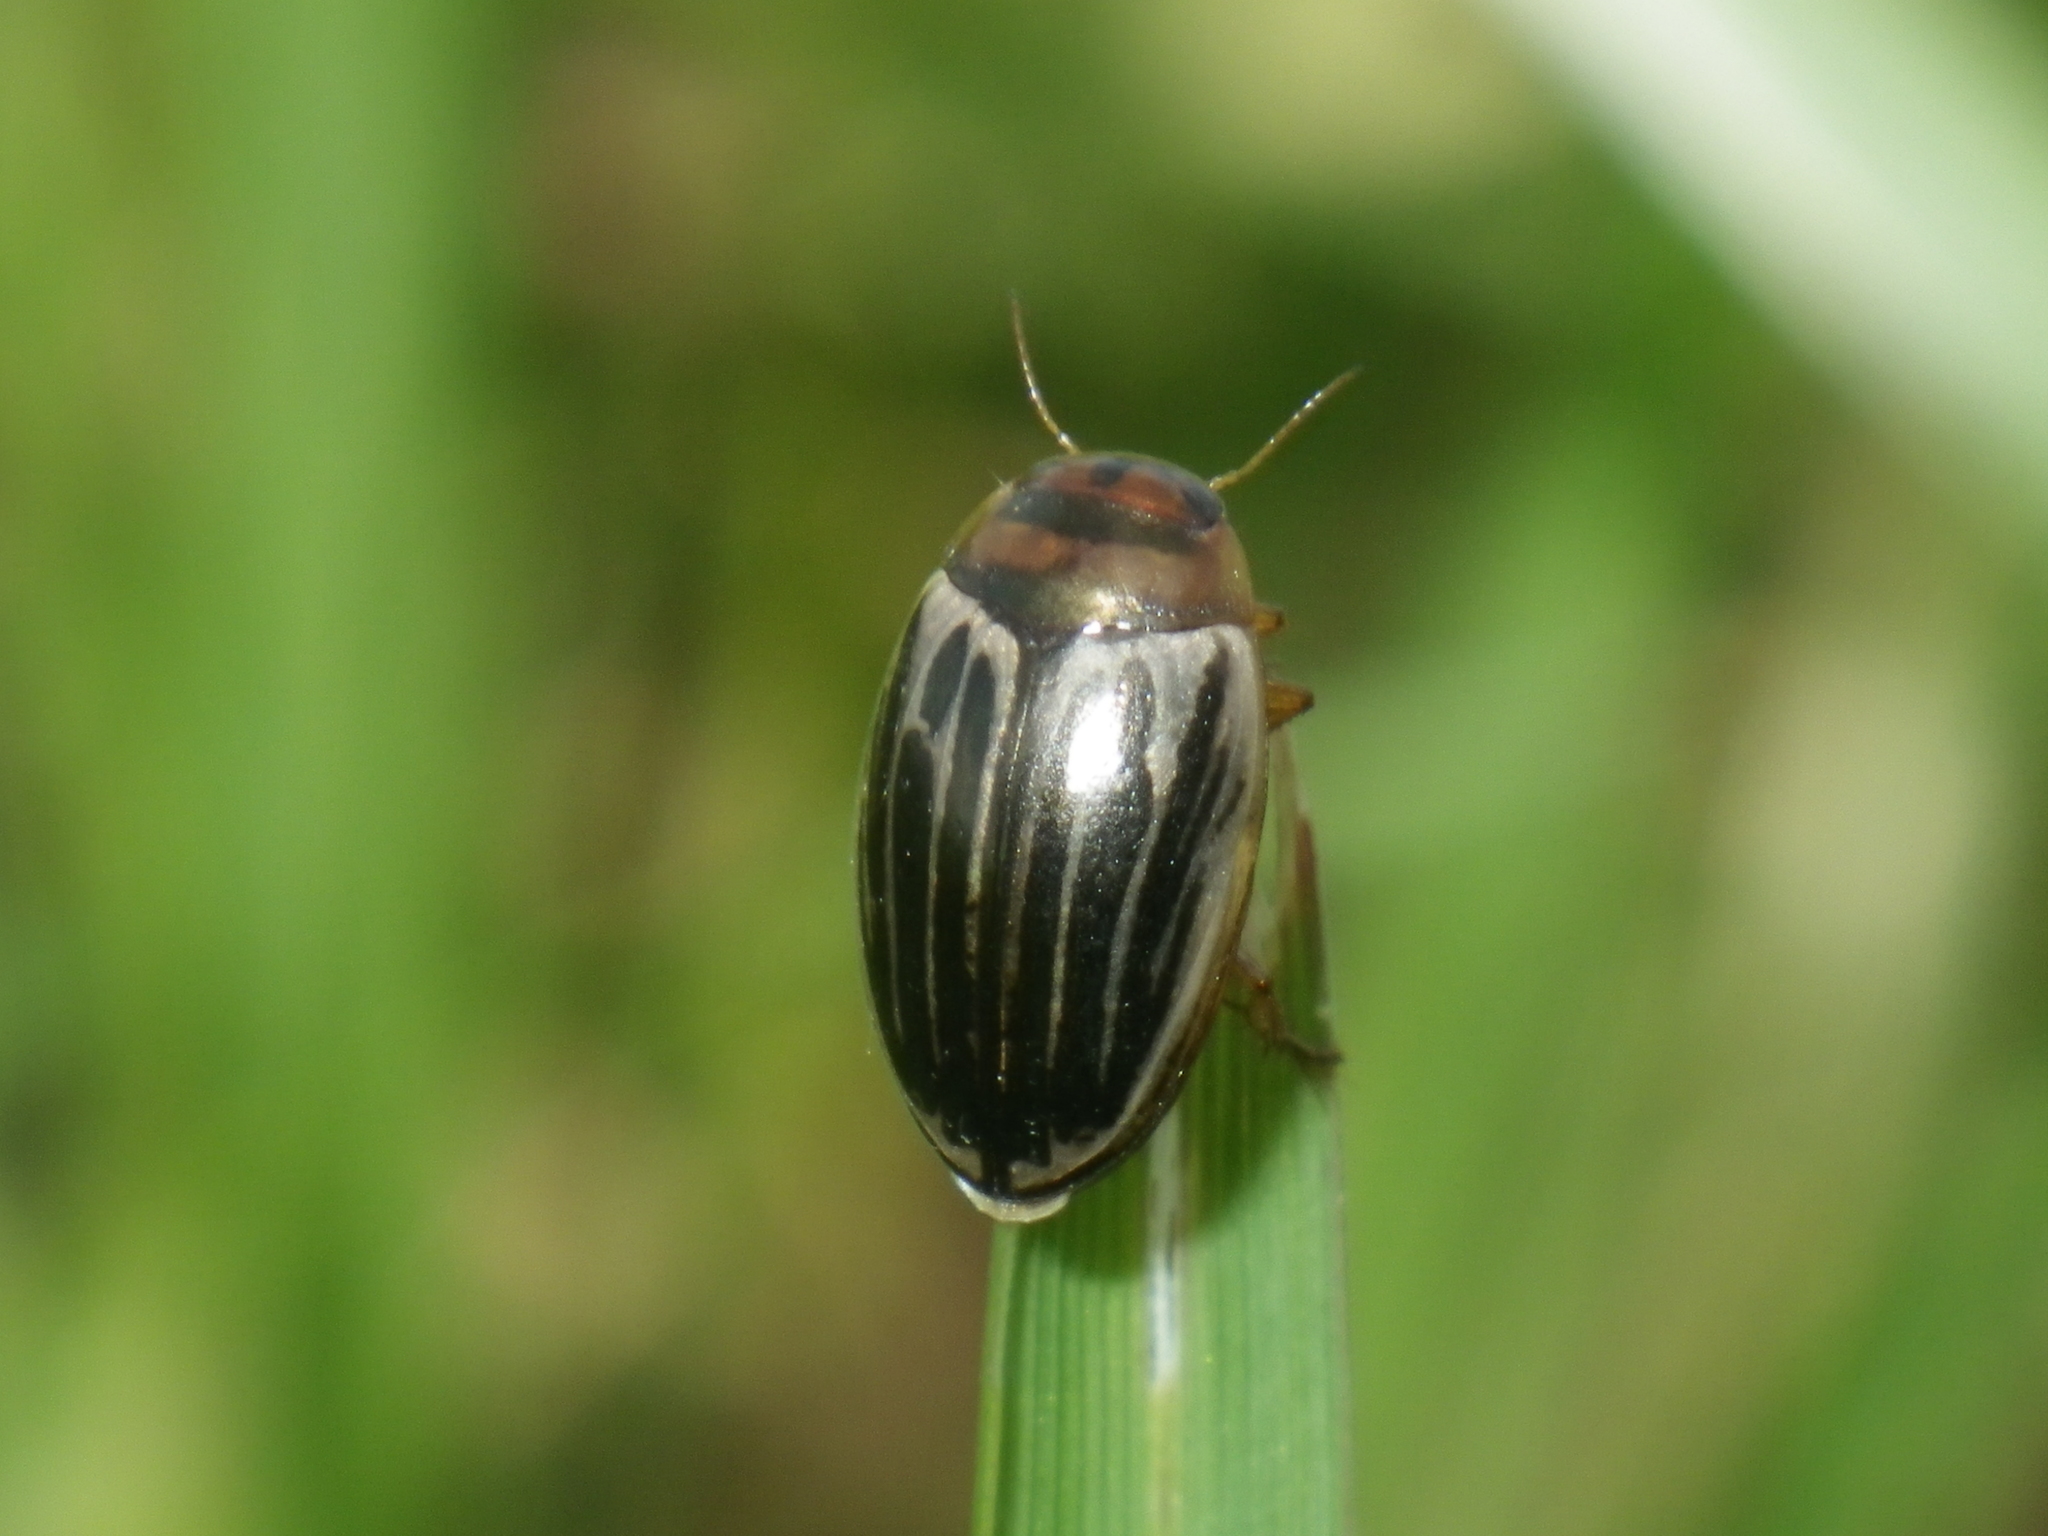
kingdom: Animalia
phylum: Arthropoda
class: Insecta
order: Coleoptera
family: Dytiscidae
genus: Agabus
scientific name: Agabus disintegratus
